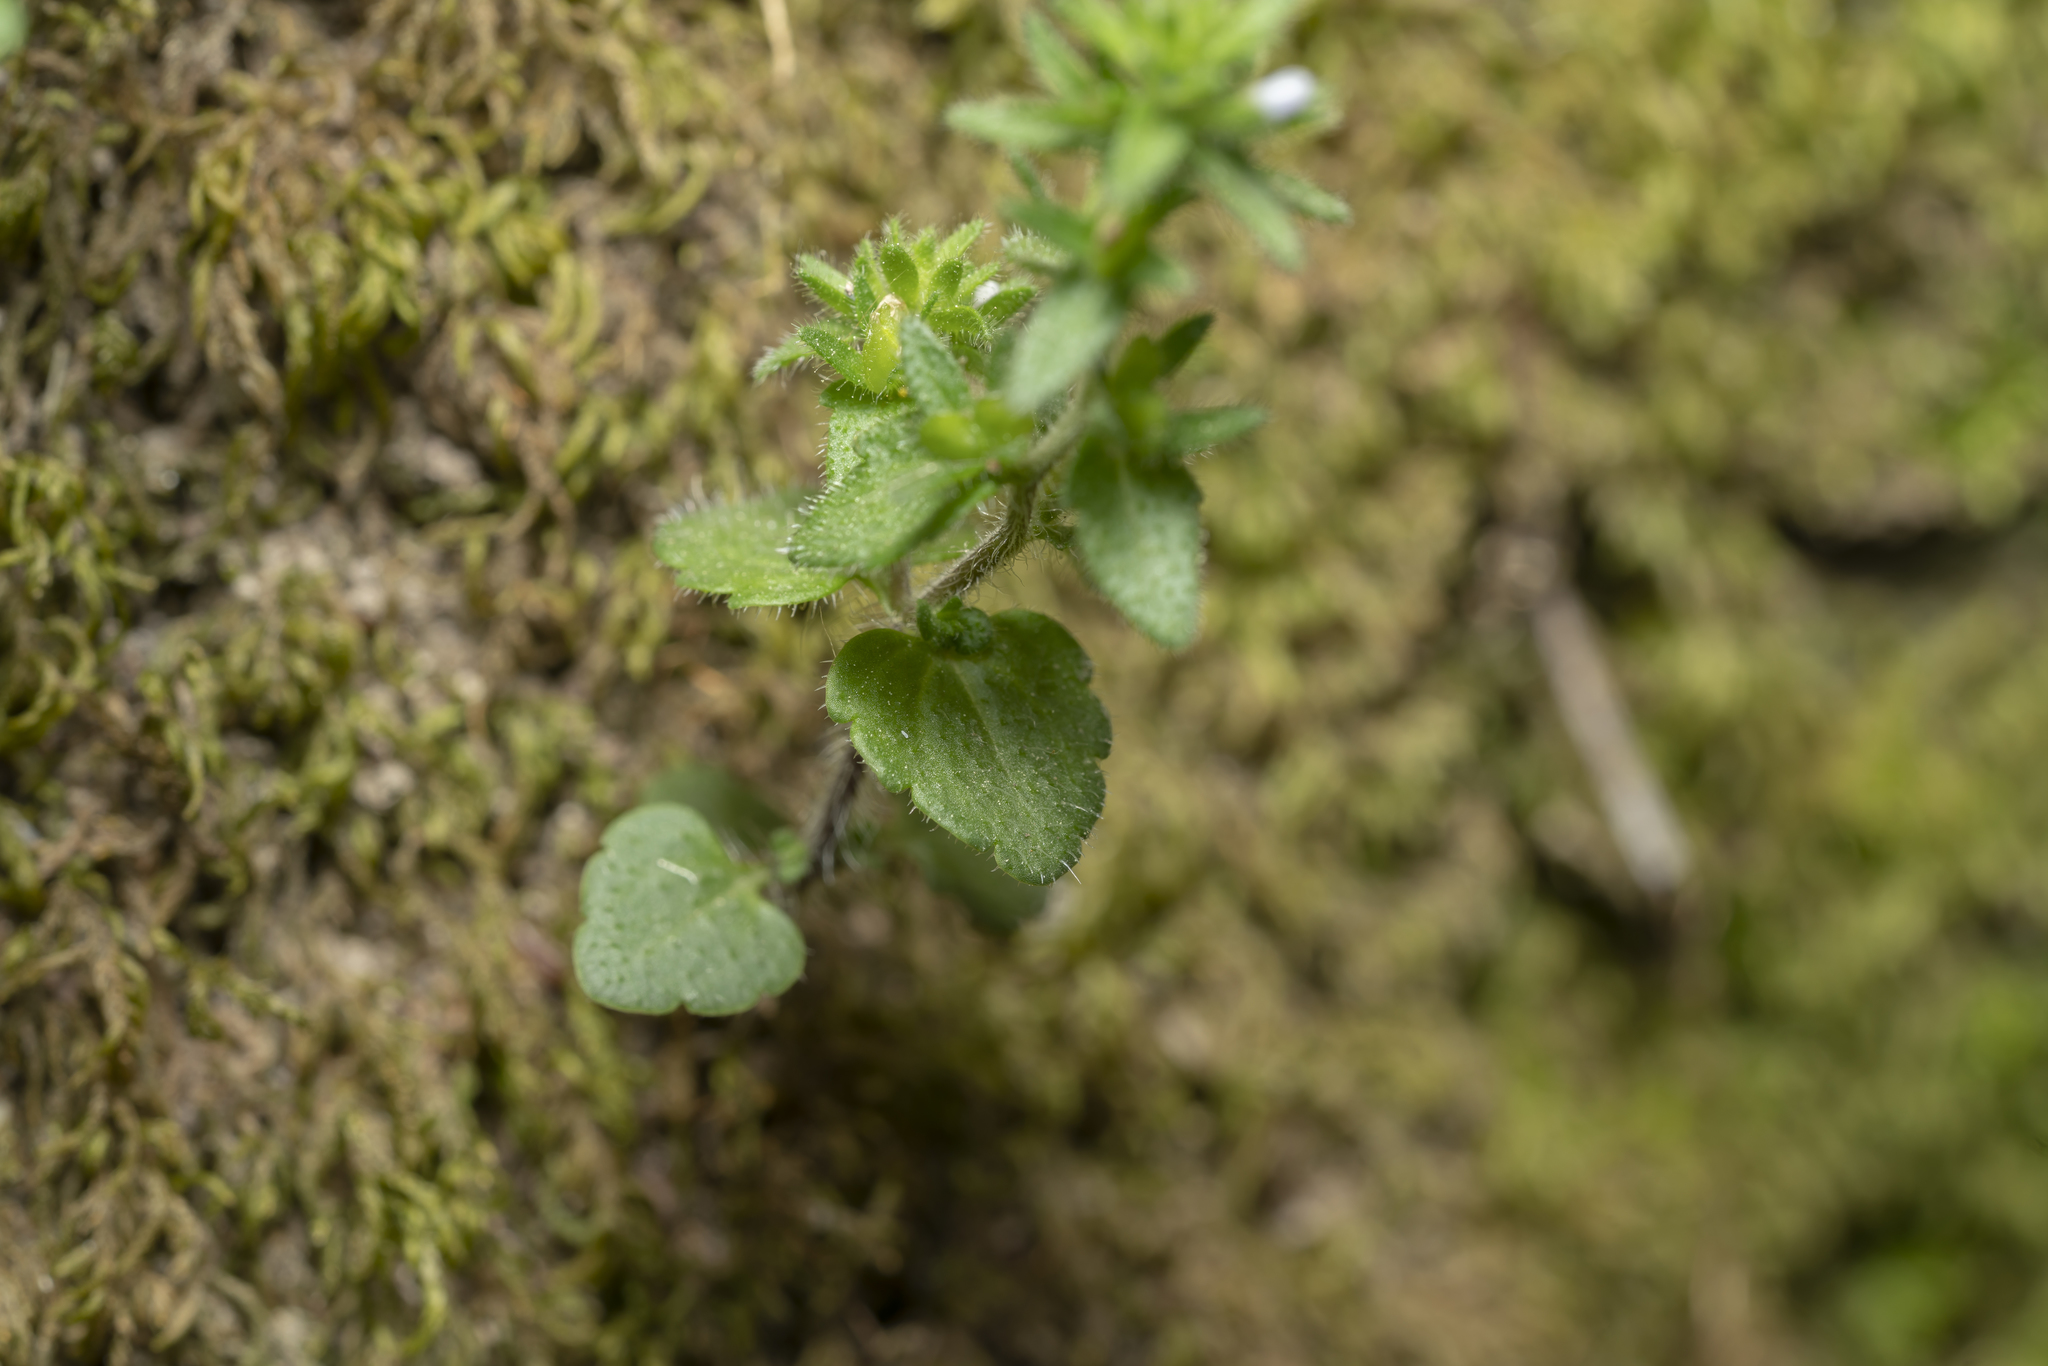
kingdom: Plantae
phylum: Tracheophyta
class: Magnoliopsida
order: Lamiales
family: Plantaginaceae
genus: Veronica
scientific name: Veronica arvensis
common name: Corn speedwell
